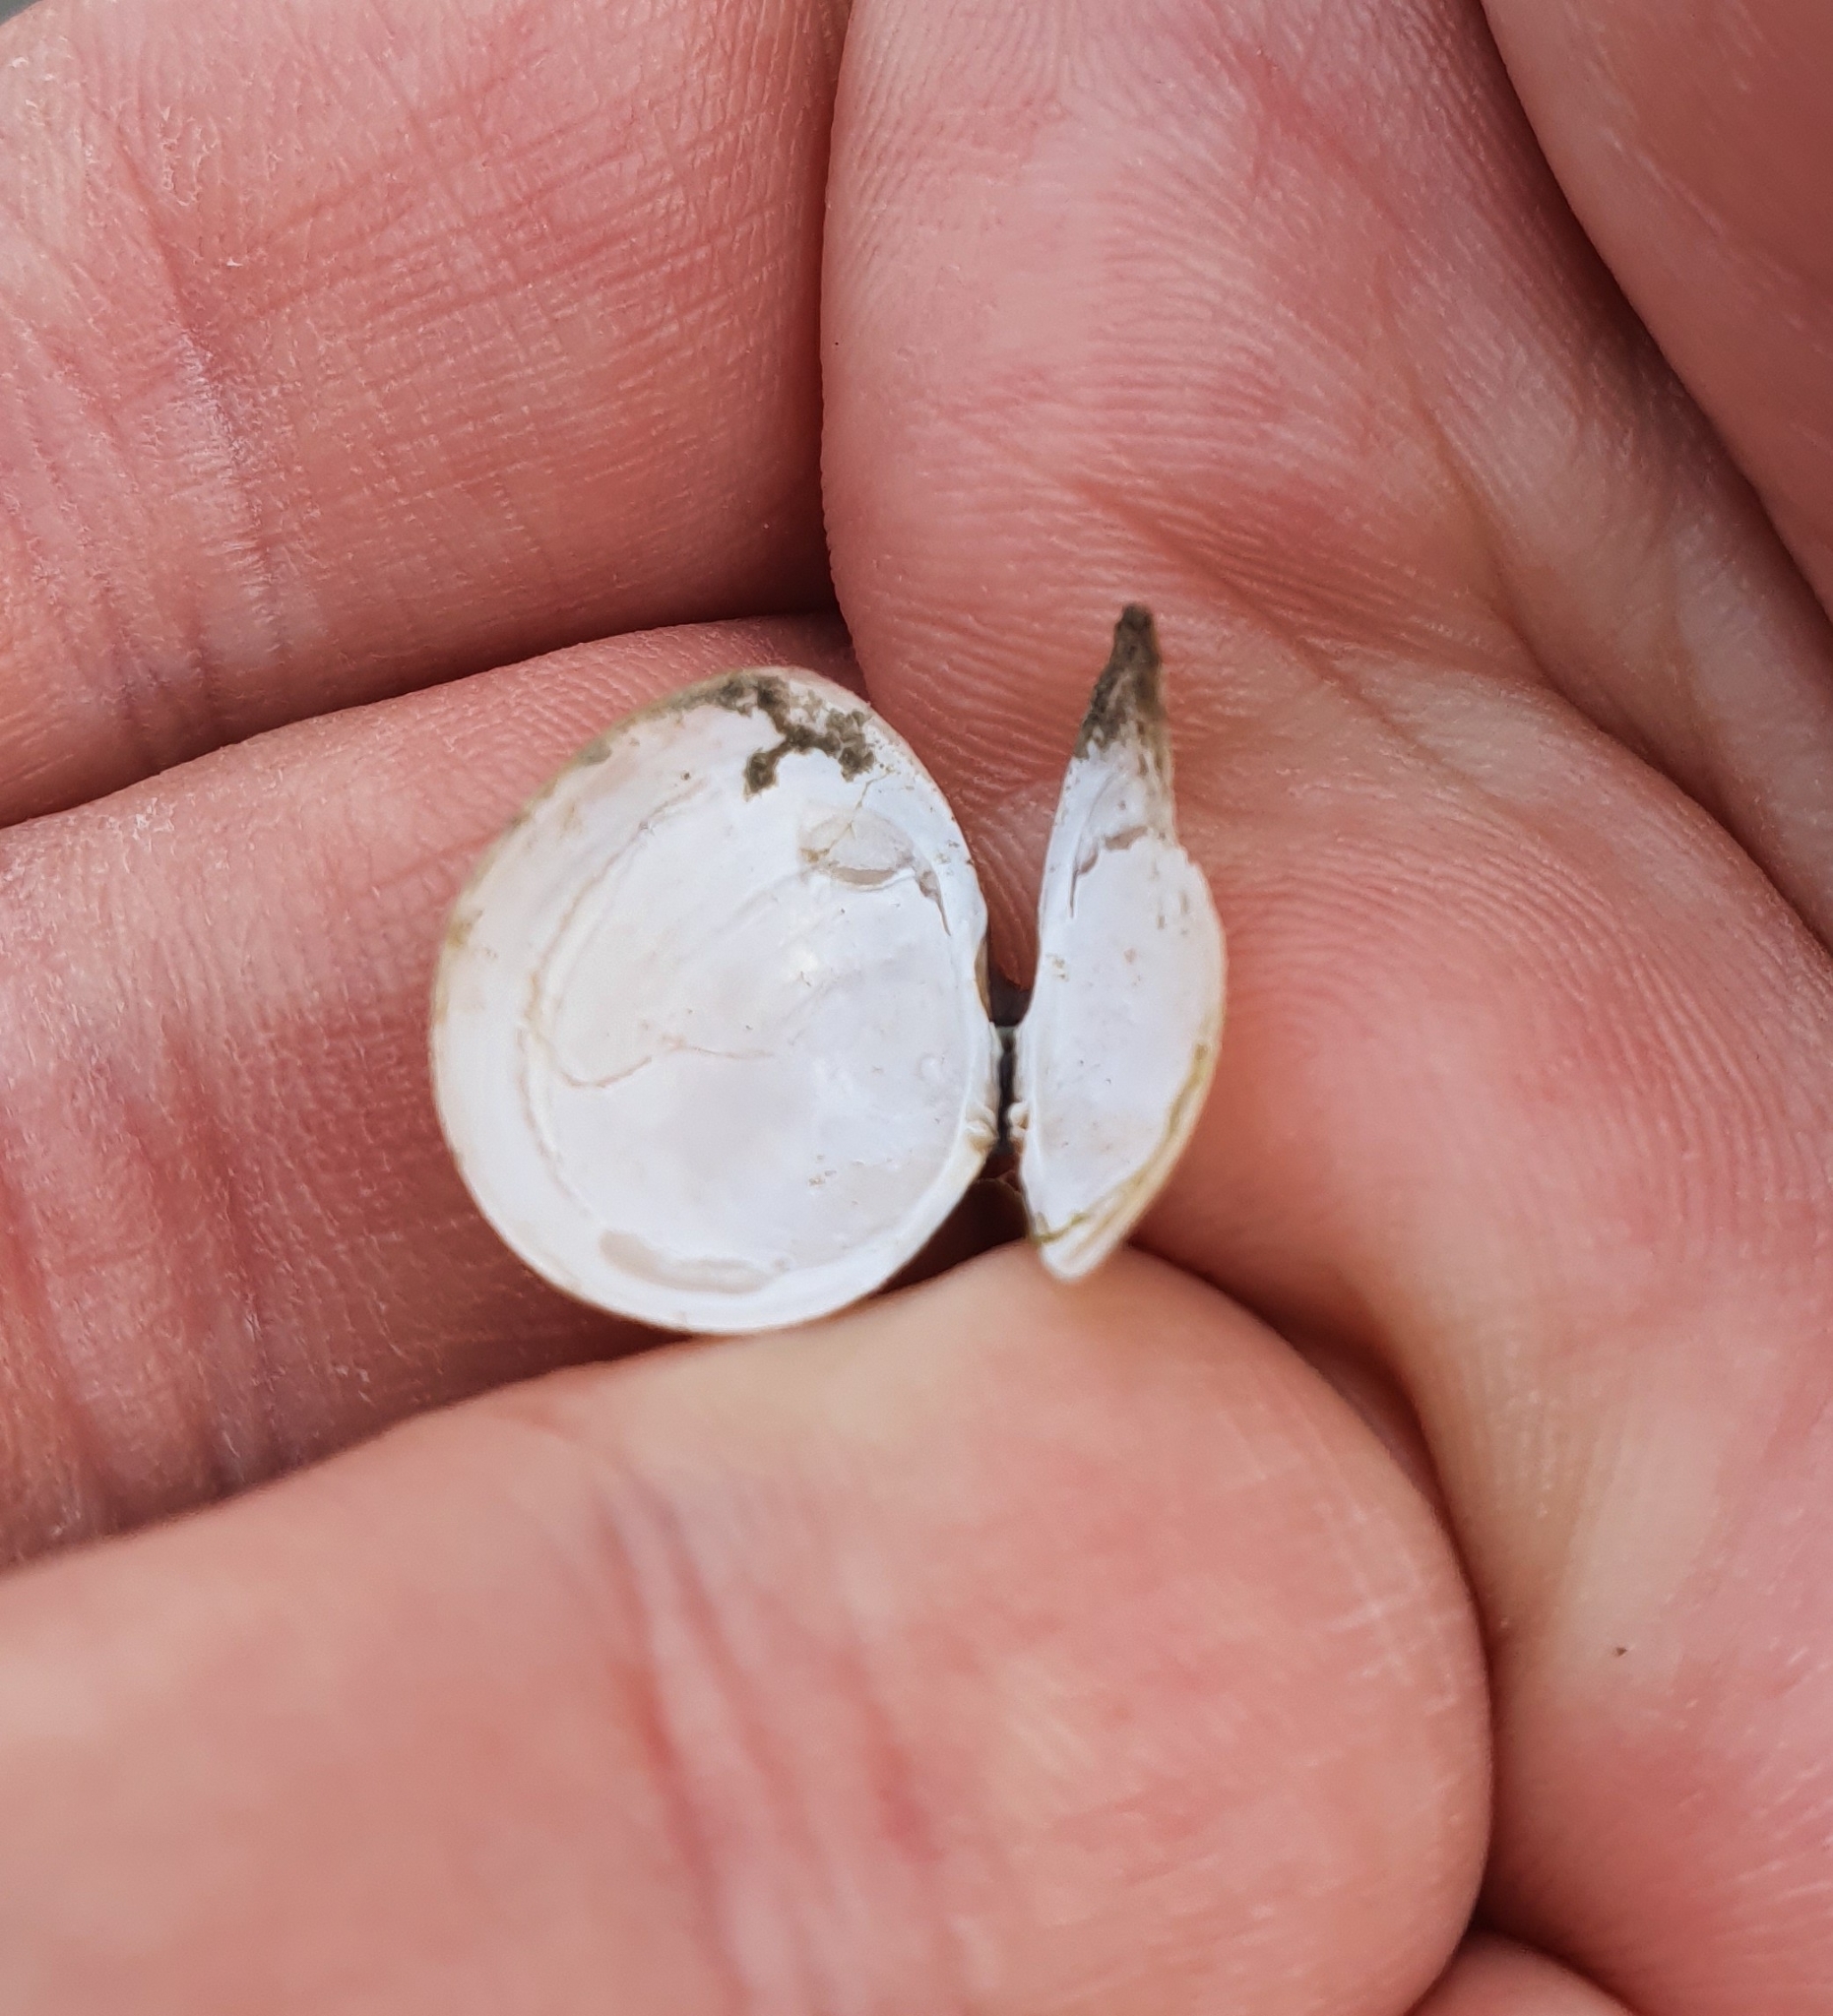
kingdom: Animalia
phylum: Mollusca
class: Bivalvia
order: Cardiida
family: Tellinidae
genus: Macoma
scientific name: Macoma balthica
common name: Baltic tellin
